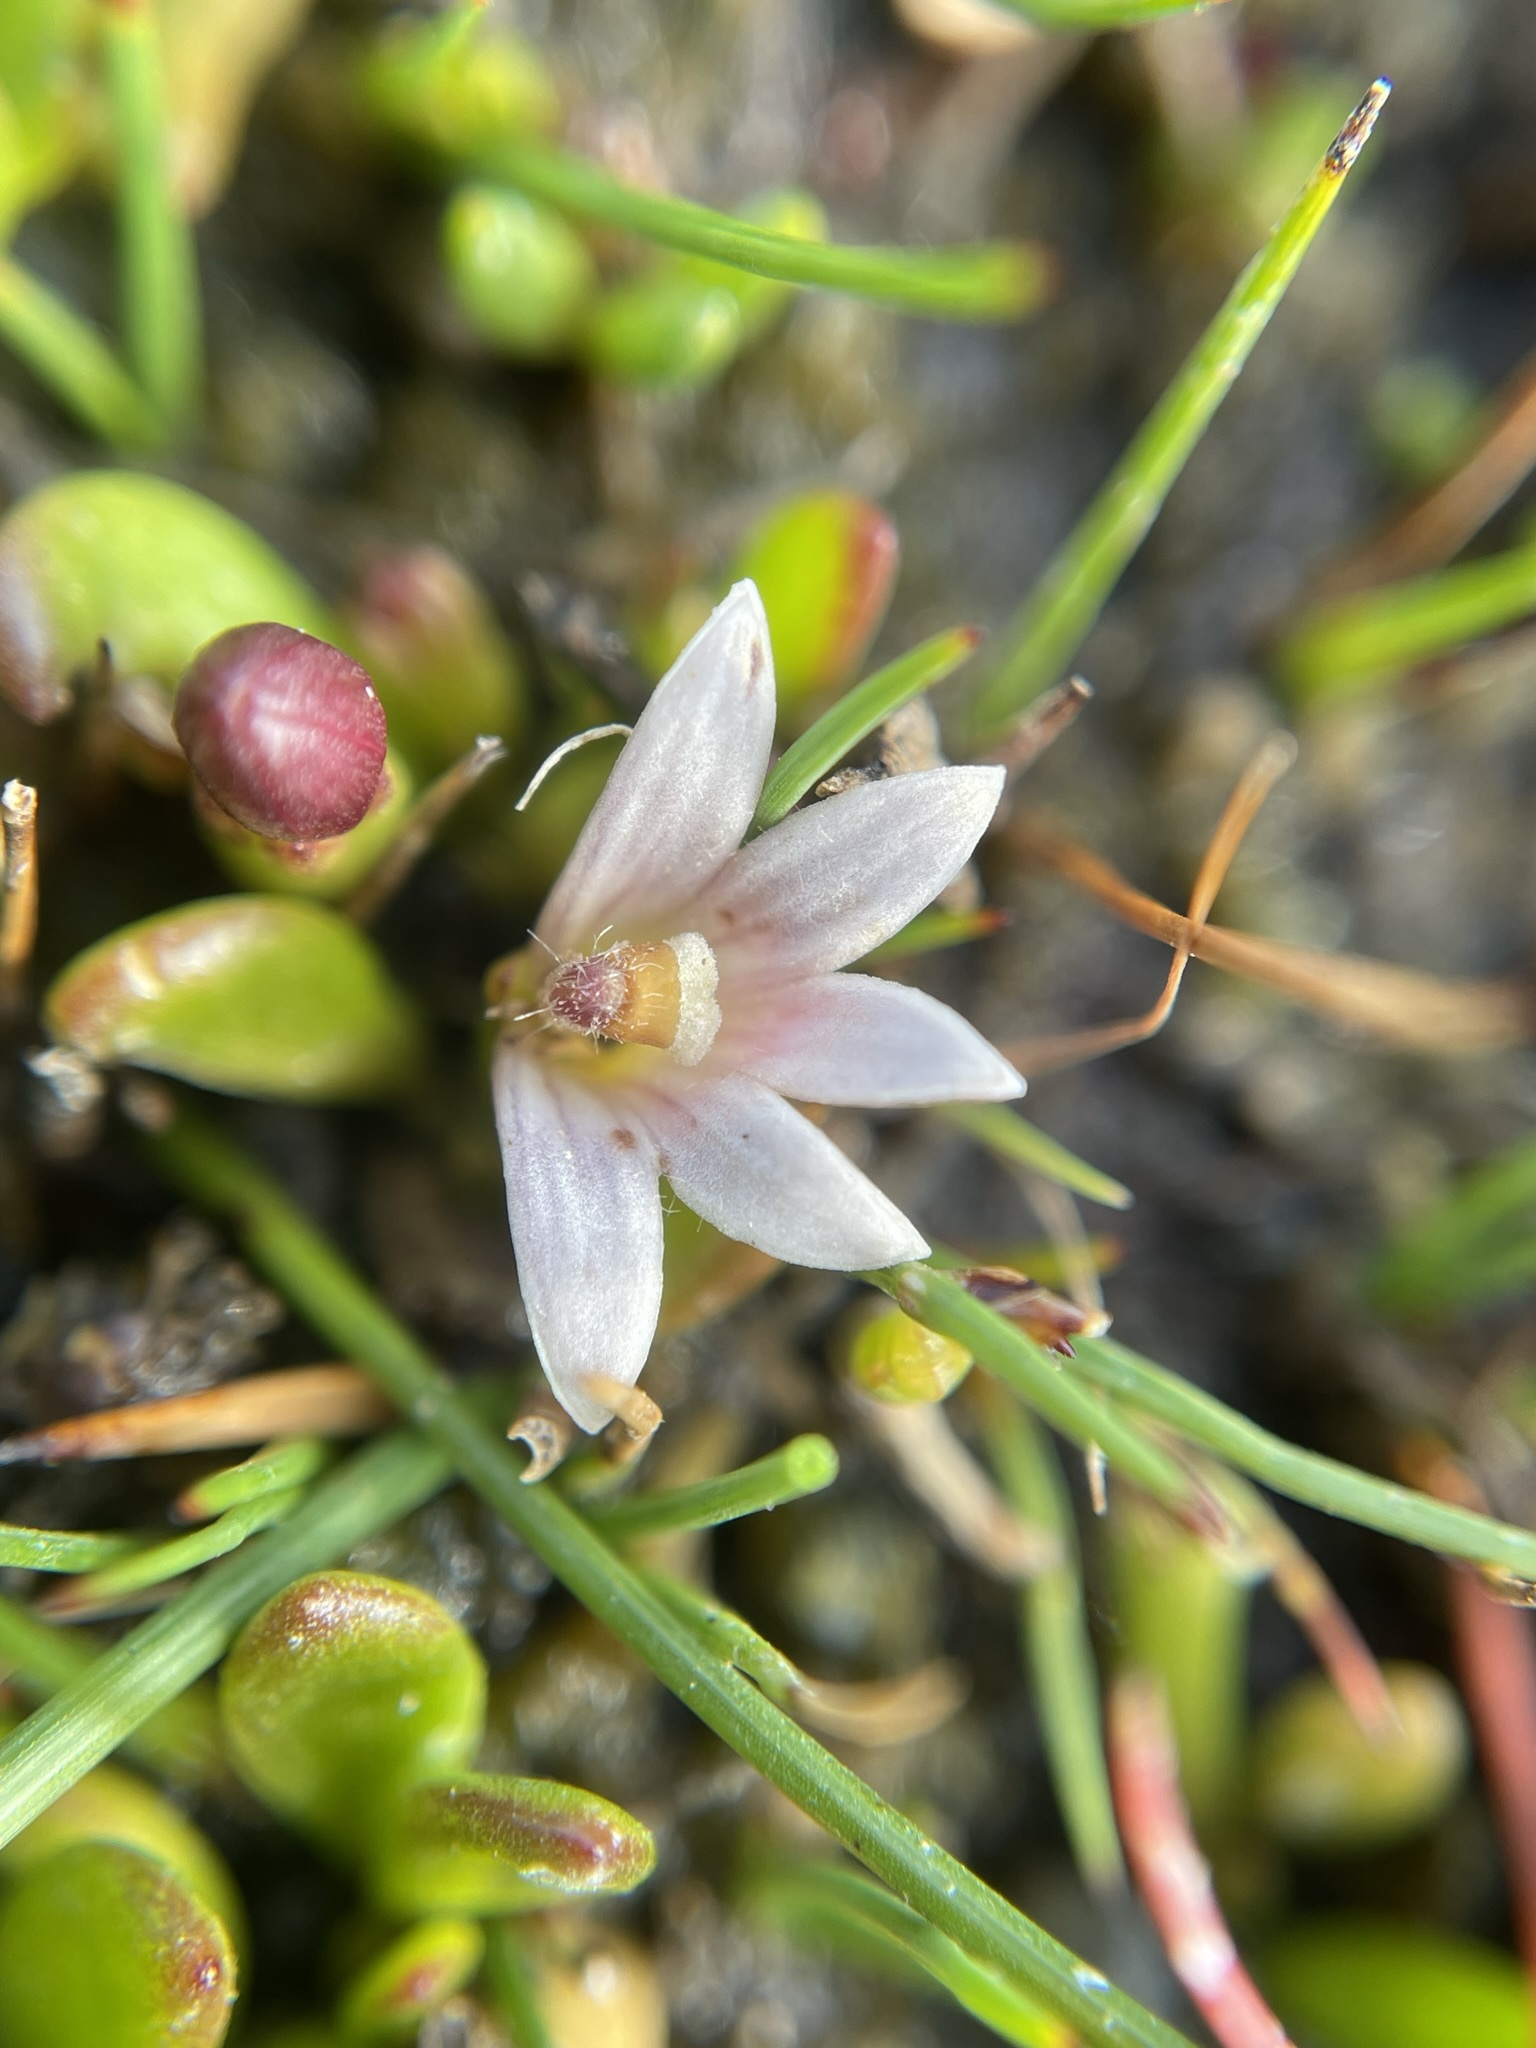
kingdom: Plantae
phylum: Tracheophyta
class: Magnoliopsida
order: Asterales
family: Goodeniaceae
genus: Goodenia
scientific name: Goodenia radicans
